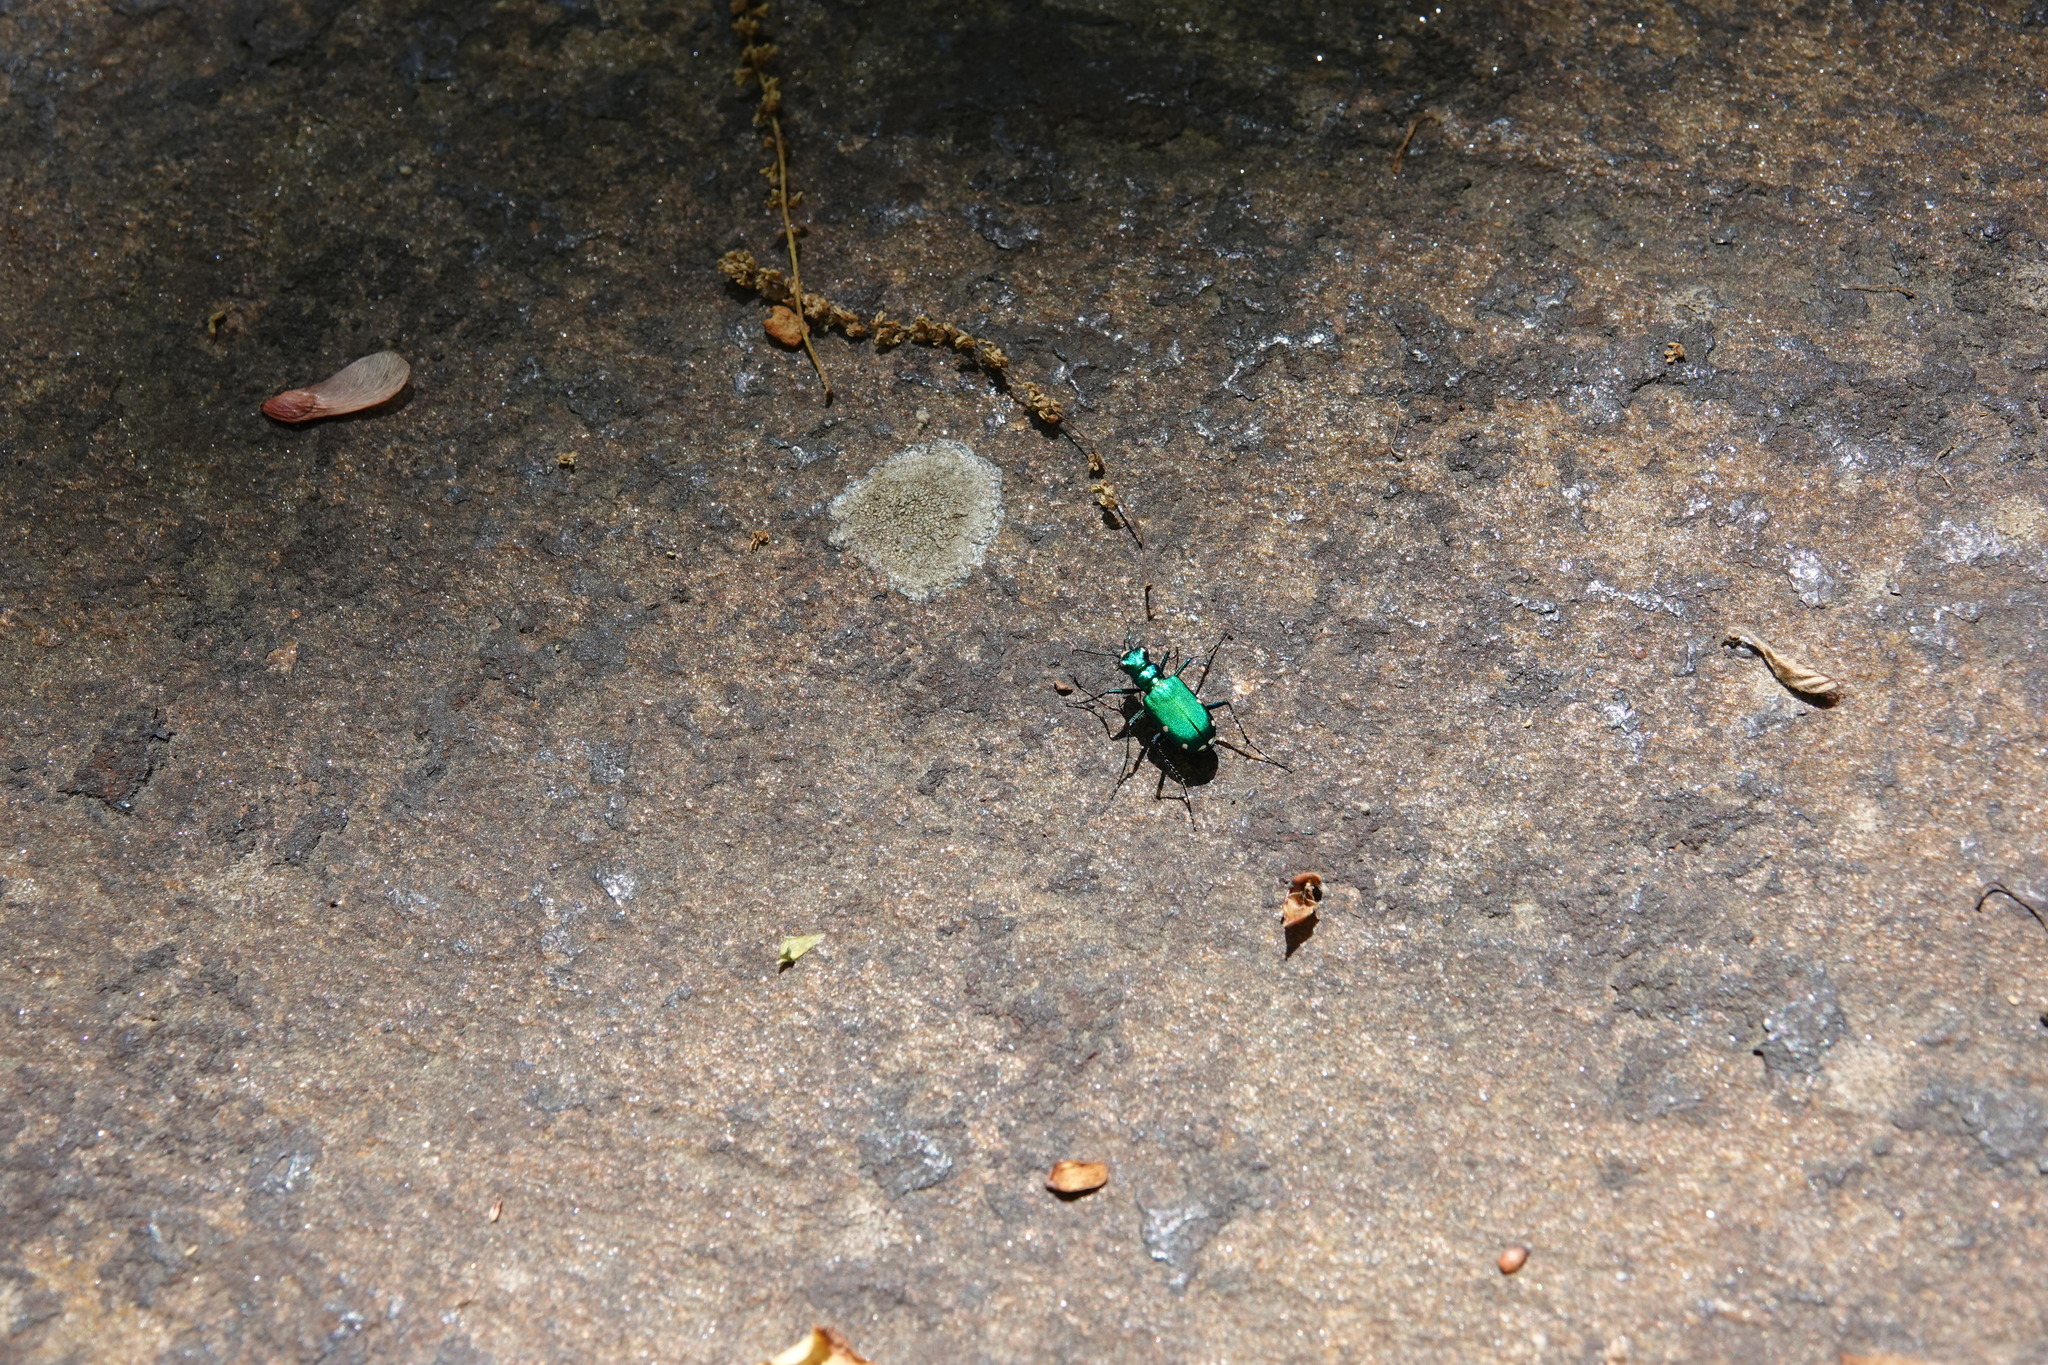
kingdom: Animalia
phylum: Arthropoda
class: Insecta
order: Coleoptera
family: Carabidae
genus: Cicindela
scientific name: Cicindela sexguttata
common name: Six-spotted tiger beetle
